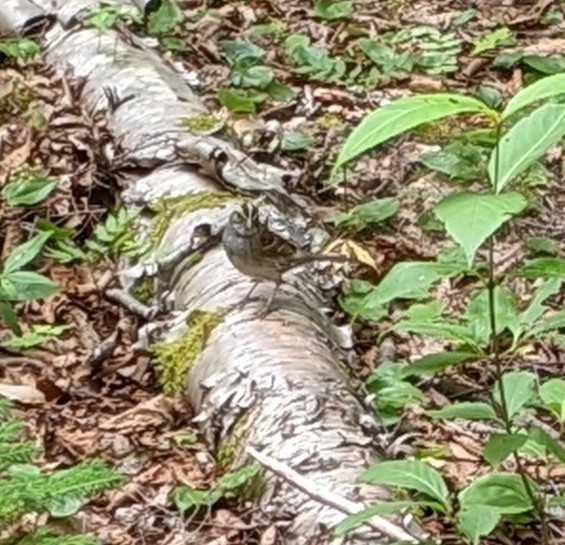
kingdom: Animalia
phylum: Chordata
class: Aves
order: Passeriformes
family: Passerellidae
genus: Zonotrichia
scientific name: Zonotrichia albicollis
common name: White-throated sparrow
